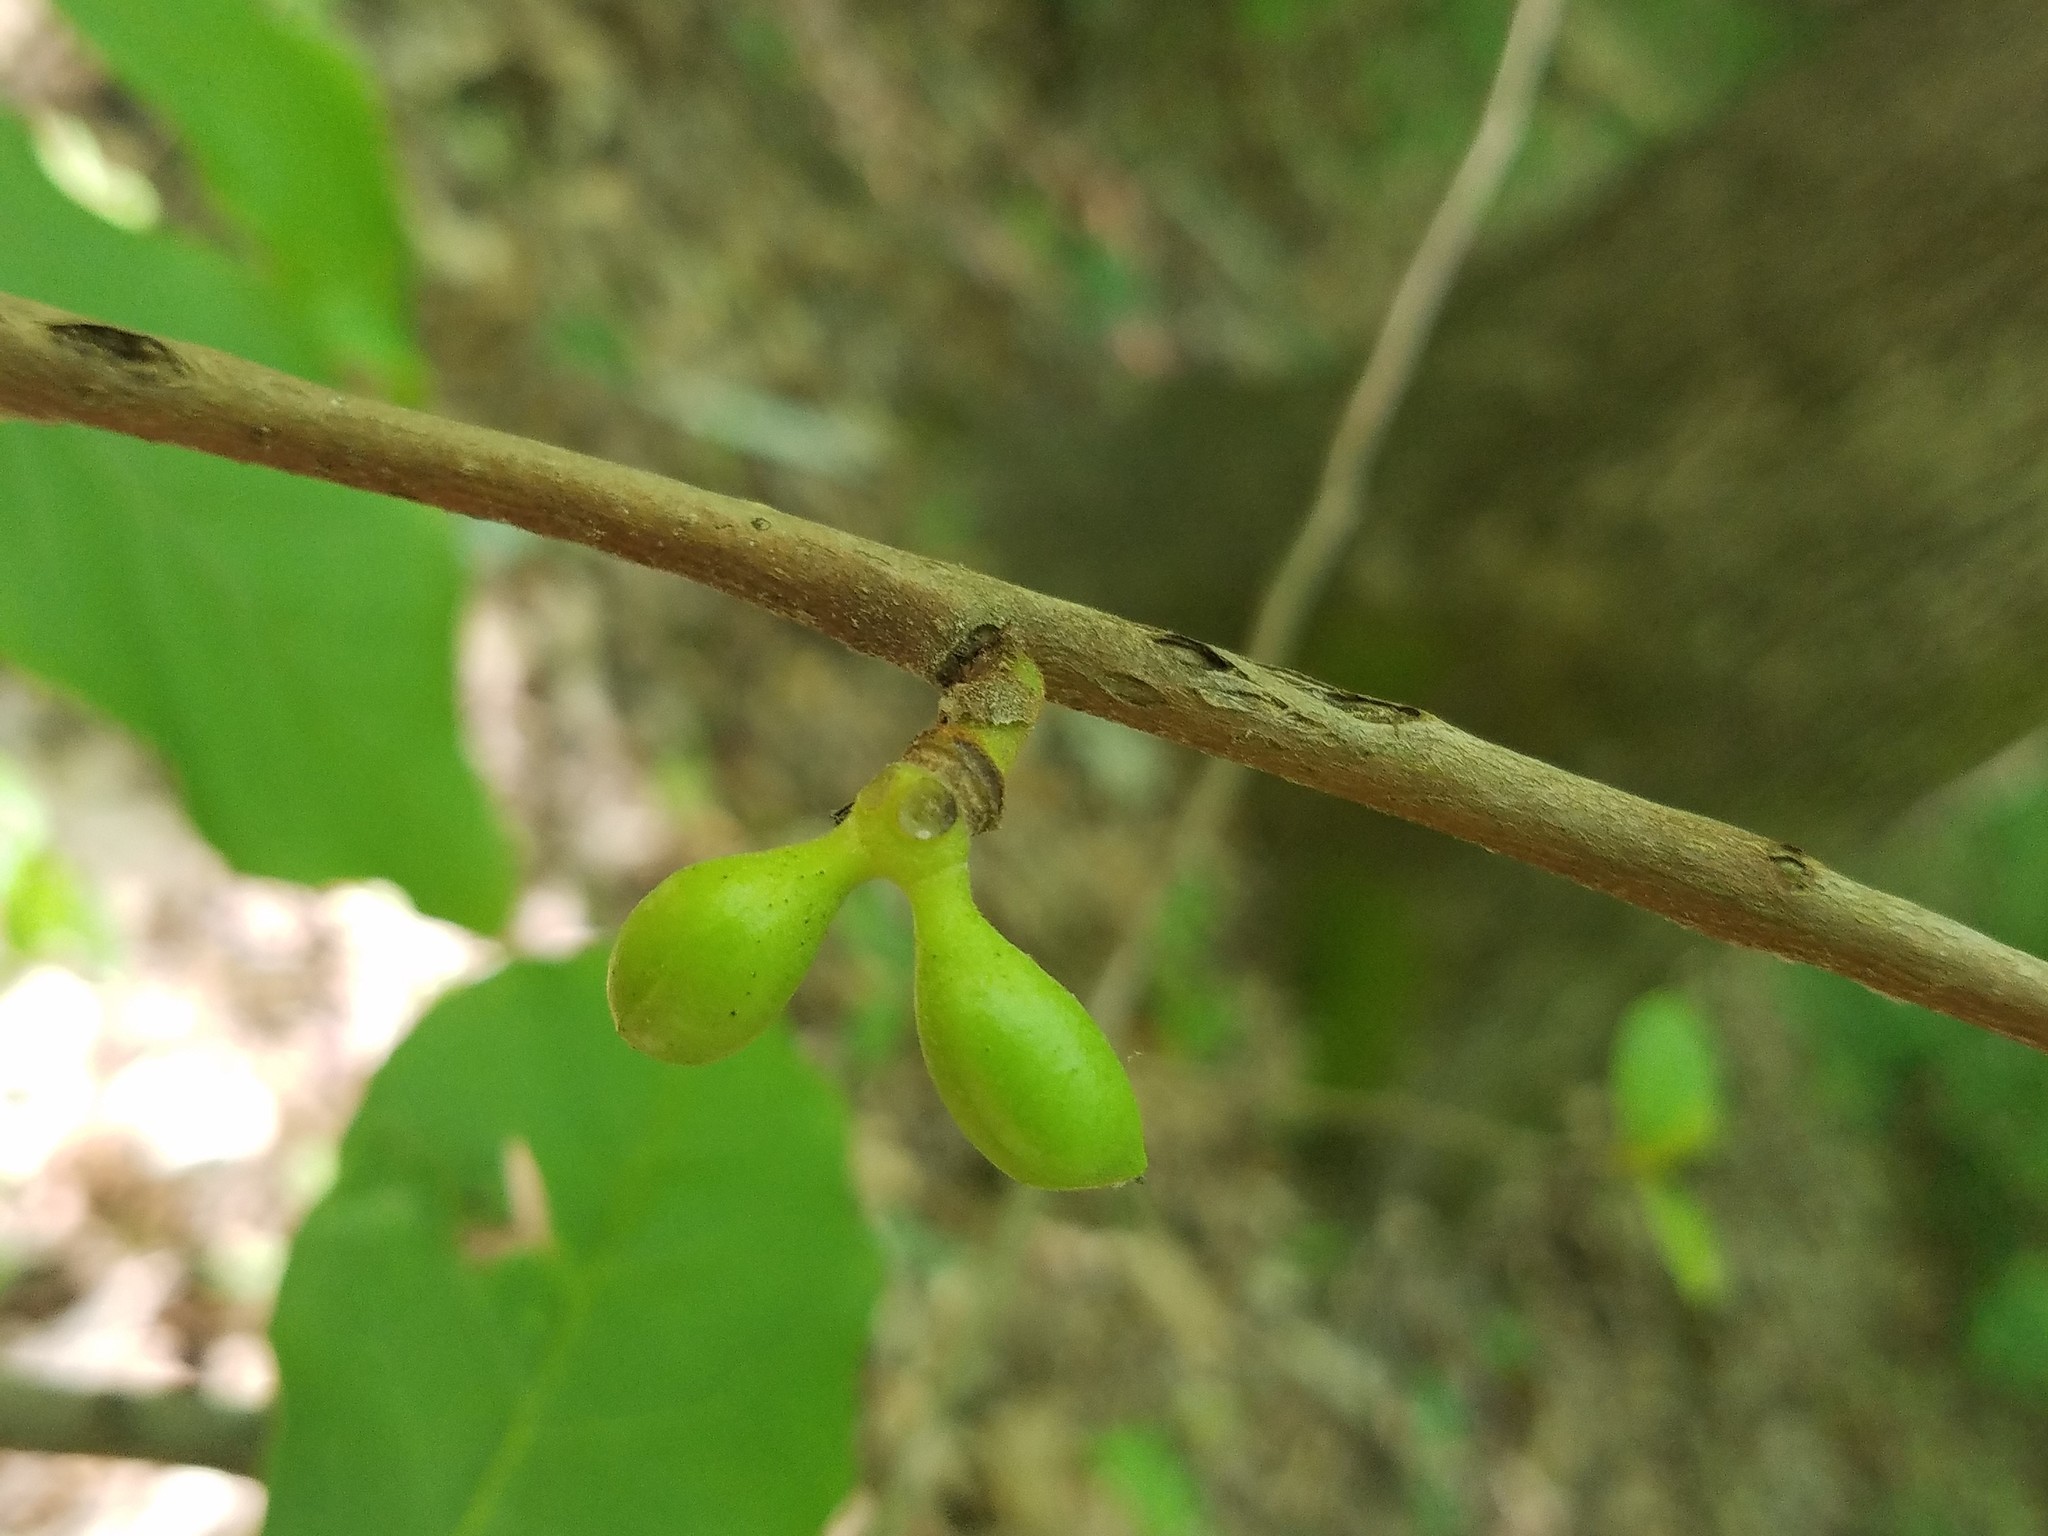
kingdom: Plantae
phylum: Tracheophyta
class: Magnoliopsida
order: Magnoliales
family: Annonaceae
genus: Asimina
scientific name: Asimina parviflora
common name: Dwarf pawpaw
